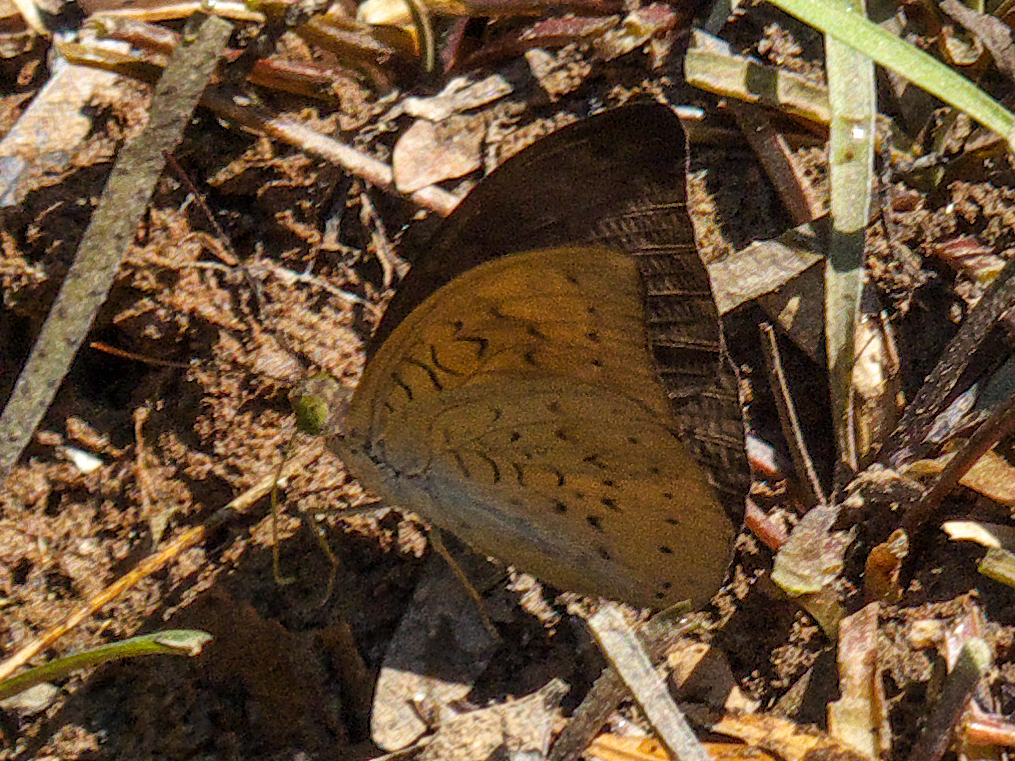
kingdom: Animalia
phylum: Arthropoda
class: Insecta
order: Lepidoptera
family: Nymphalidae
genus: Tanaecia
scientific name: Tanaecia jahnu
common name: Plain earl
